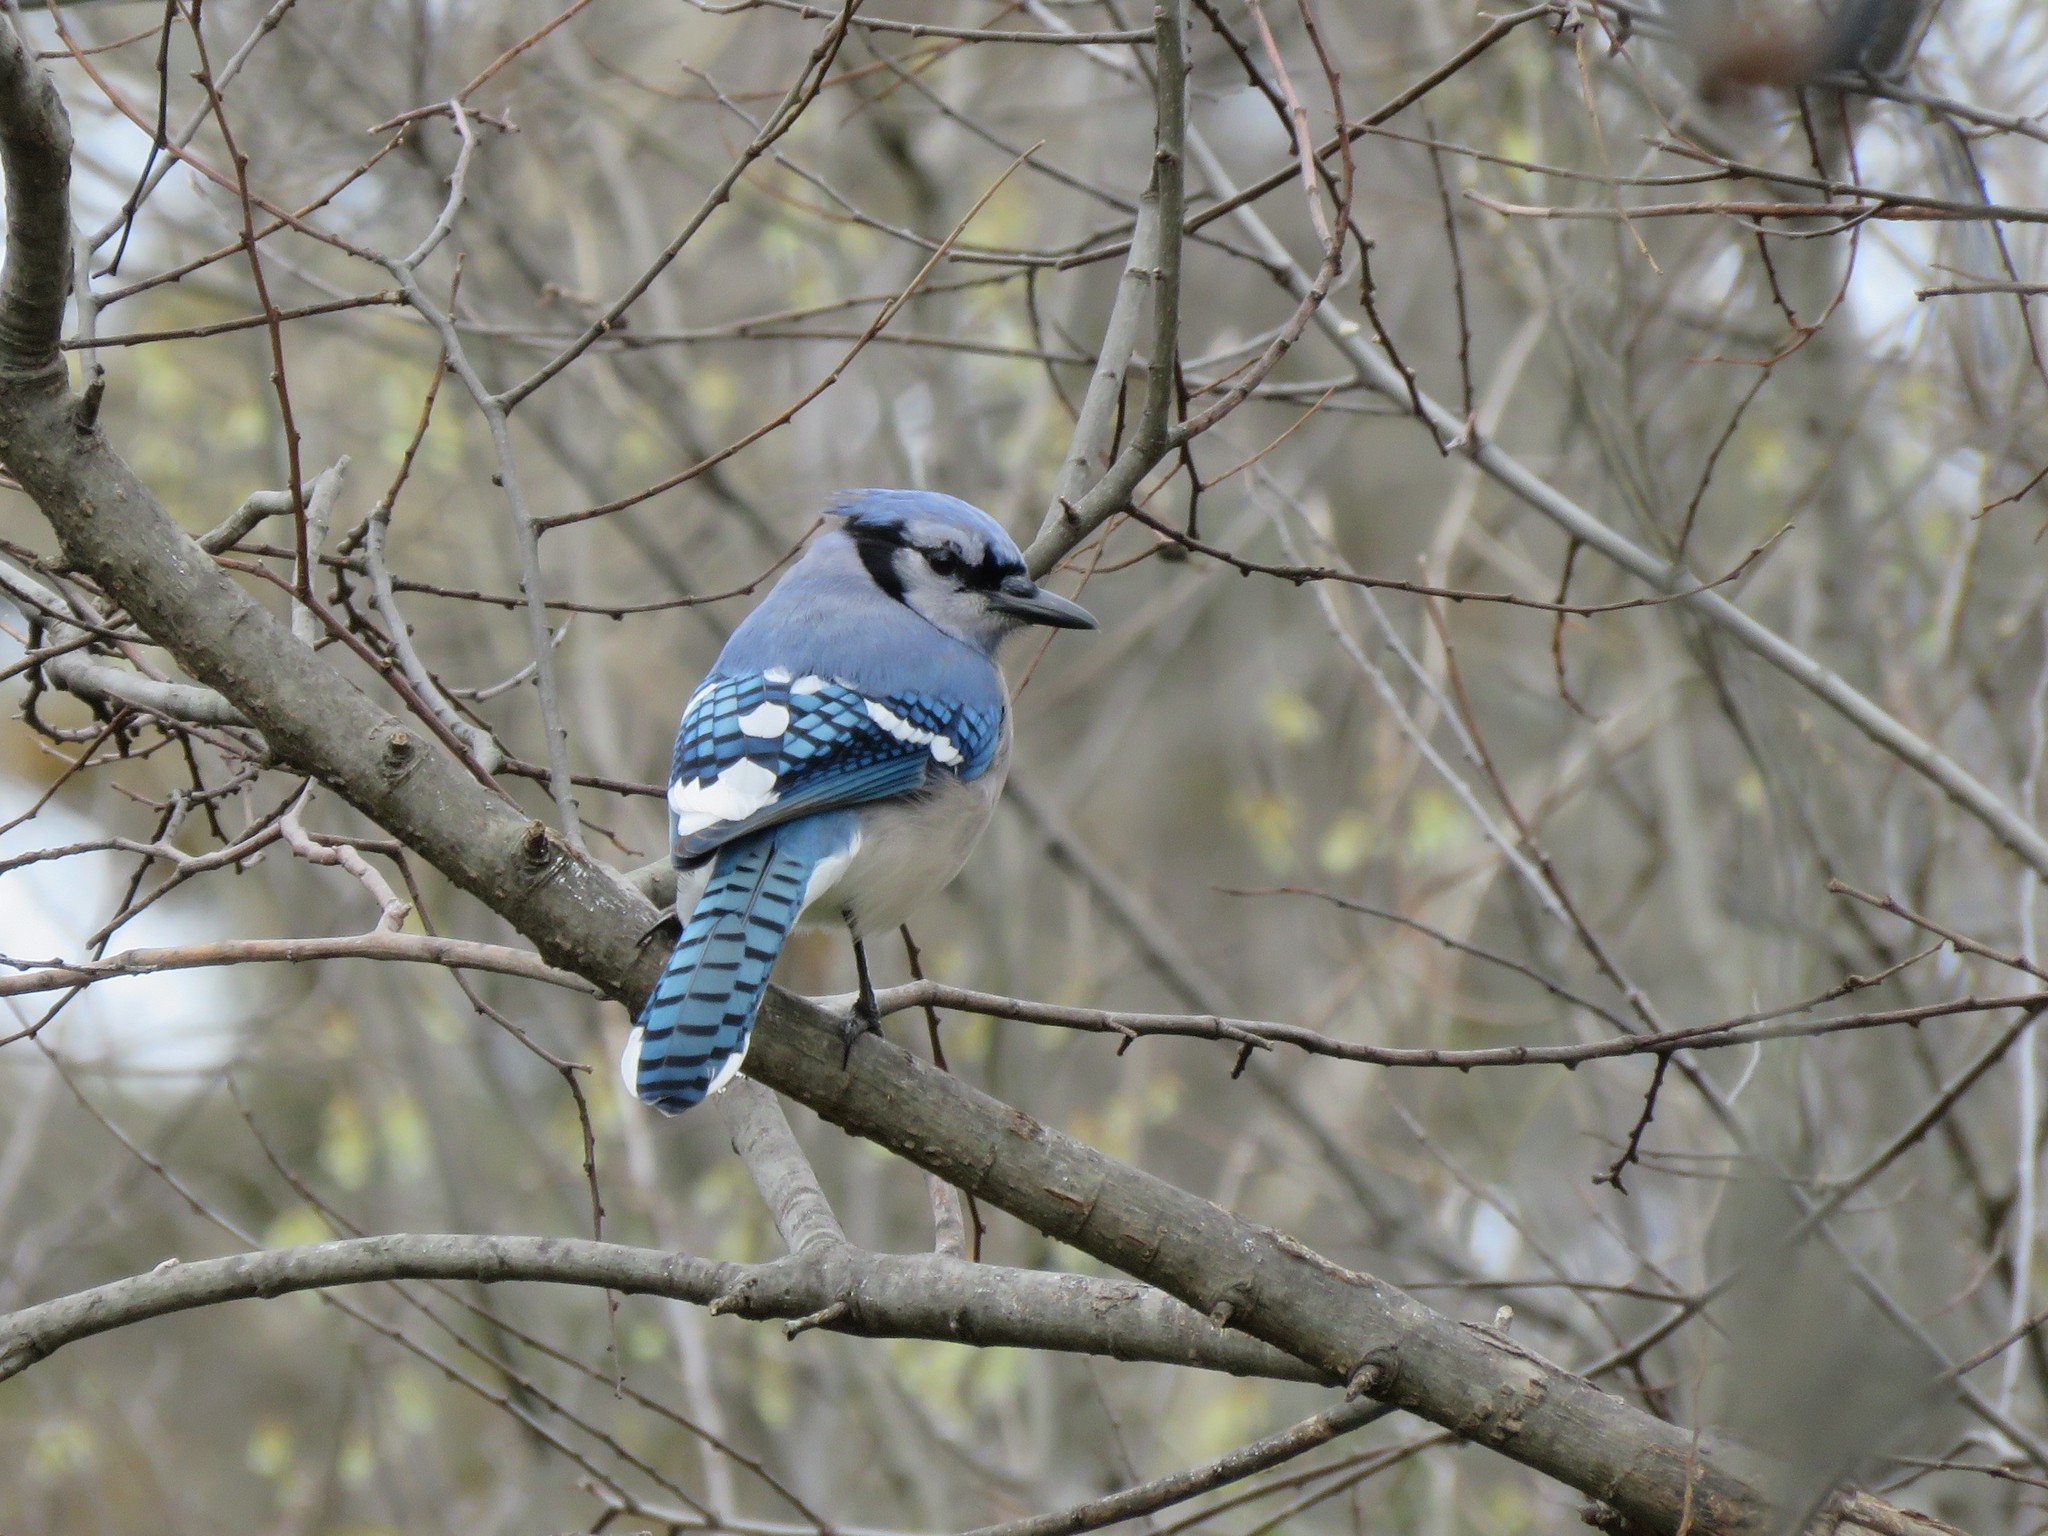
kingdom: Animalia
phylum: Chordata
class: Aves
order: Passeriformes
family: Corvidae
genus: Cyanocitta
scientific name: Cyanocitta cristata
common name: Blue jay
